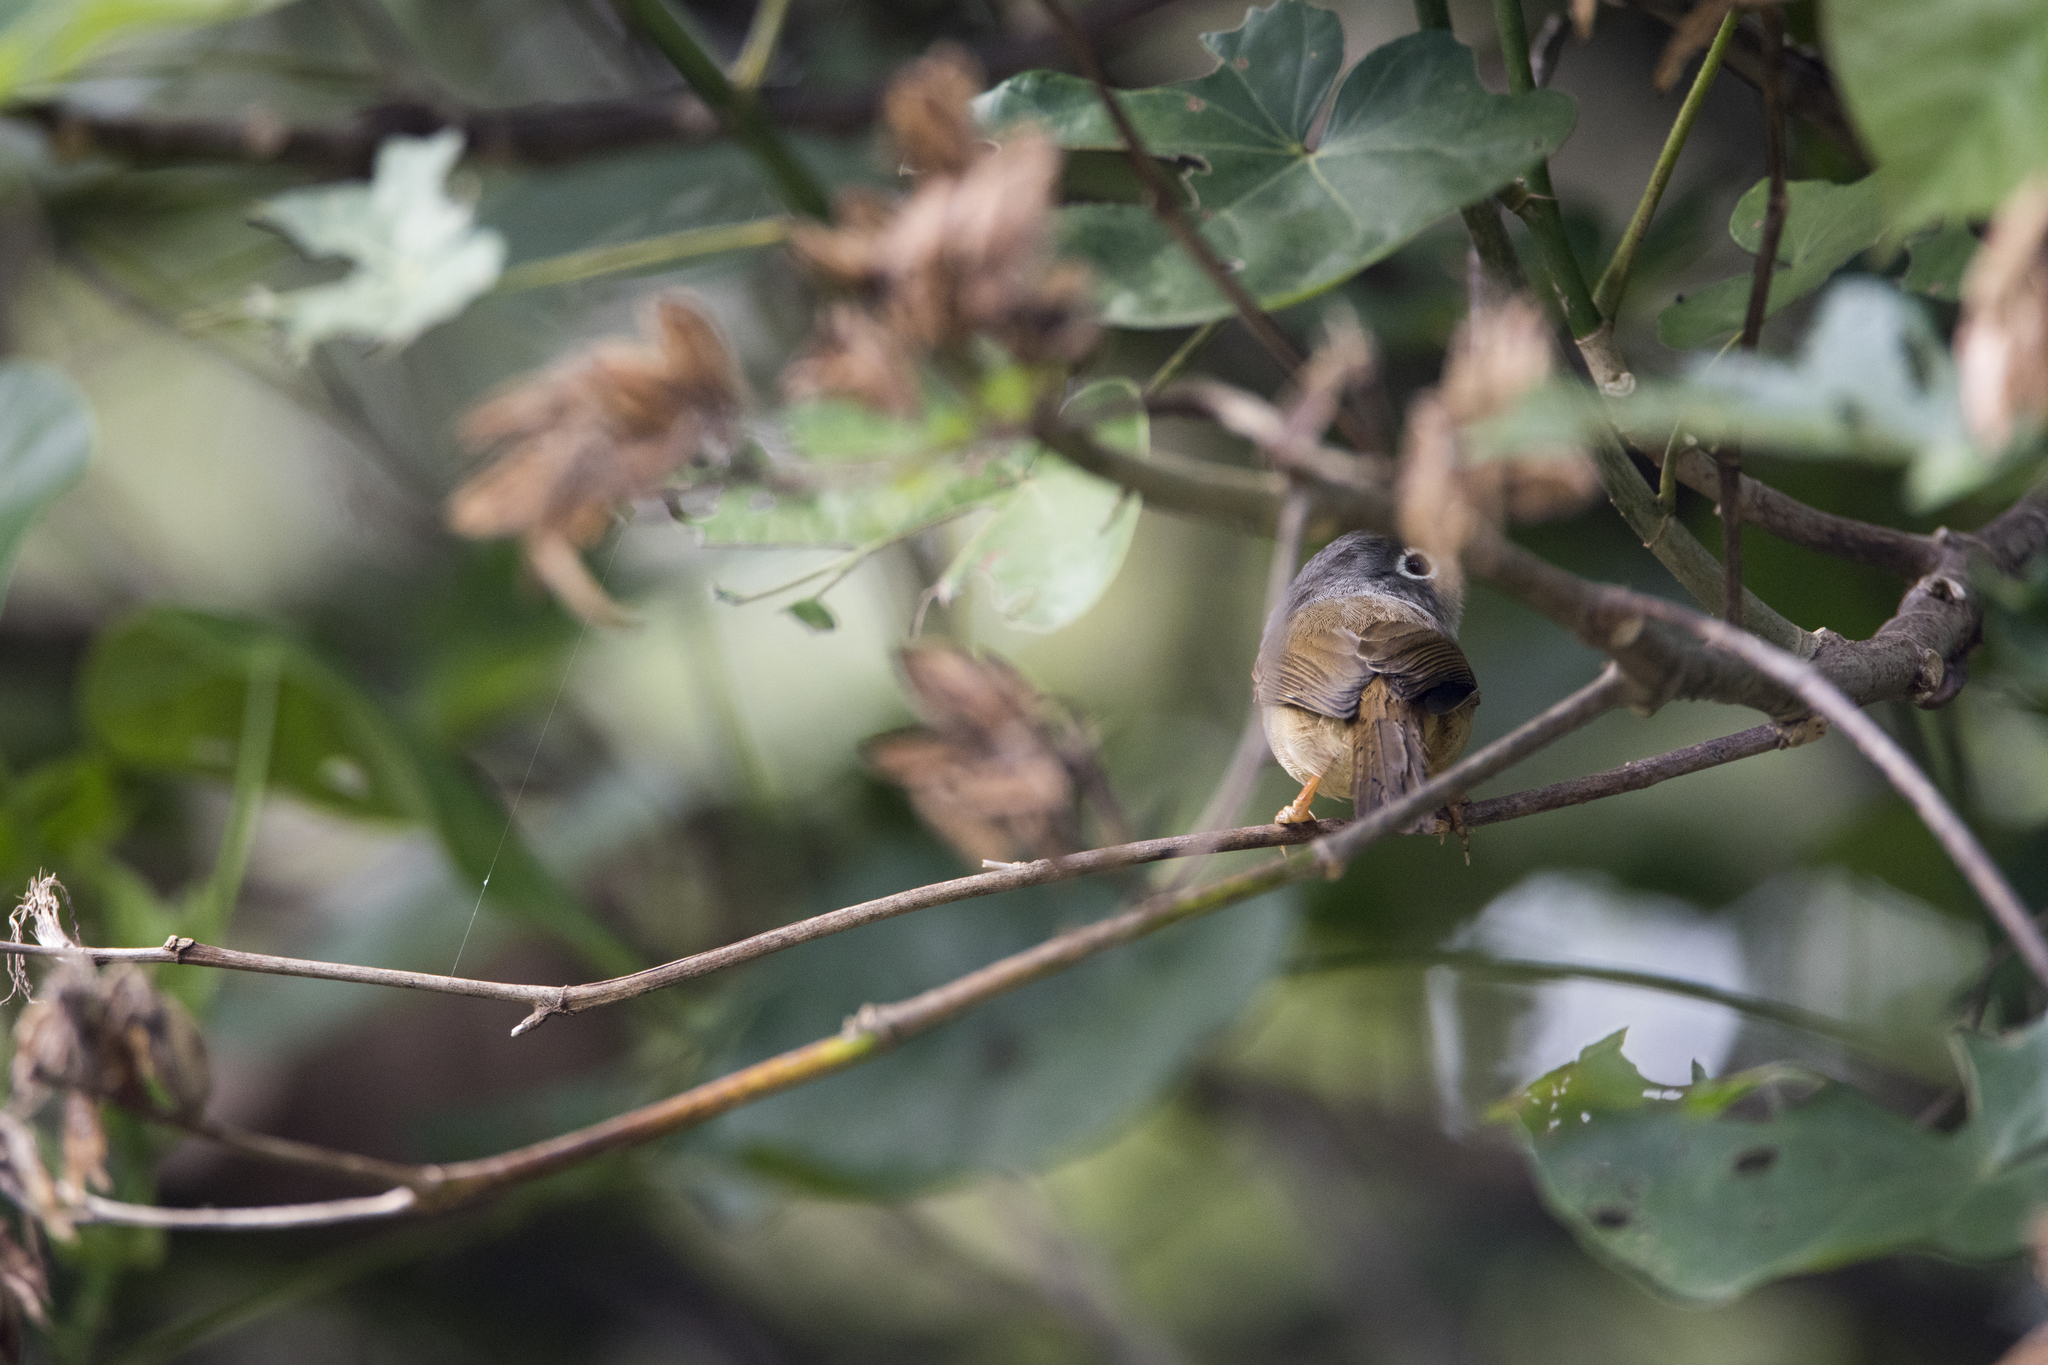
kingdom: Animalia
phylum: Chordata
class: Aves
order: Passeriformes
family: Pellorneidae
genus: Alcippe
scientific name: Alcippe morrisonia
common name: Grey-cheeked fulvetta
